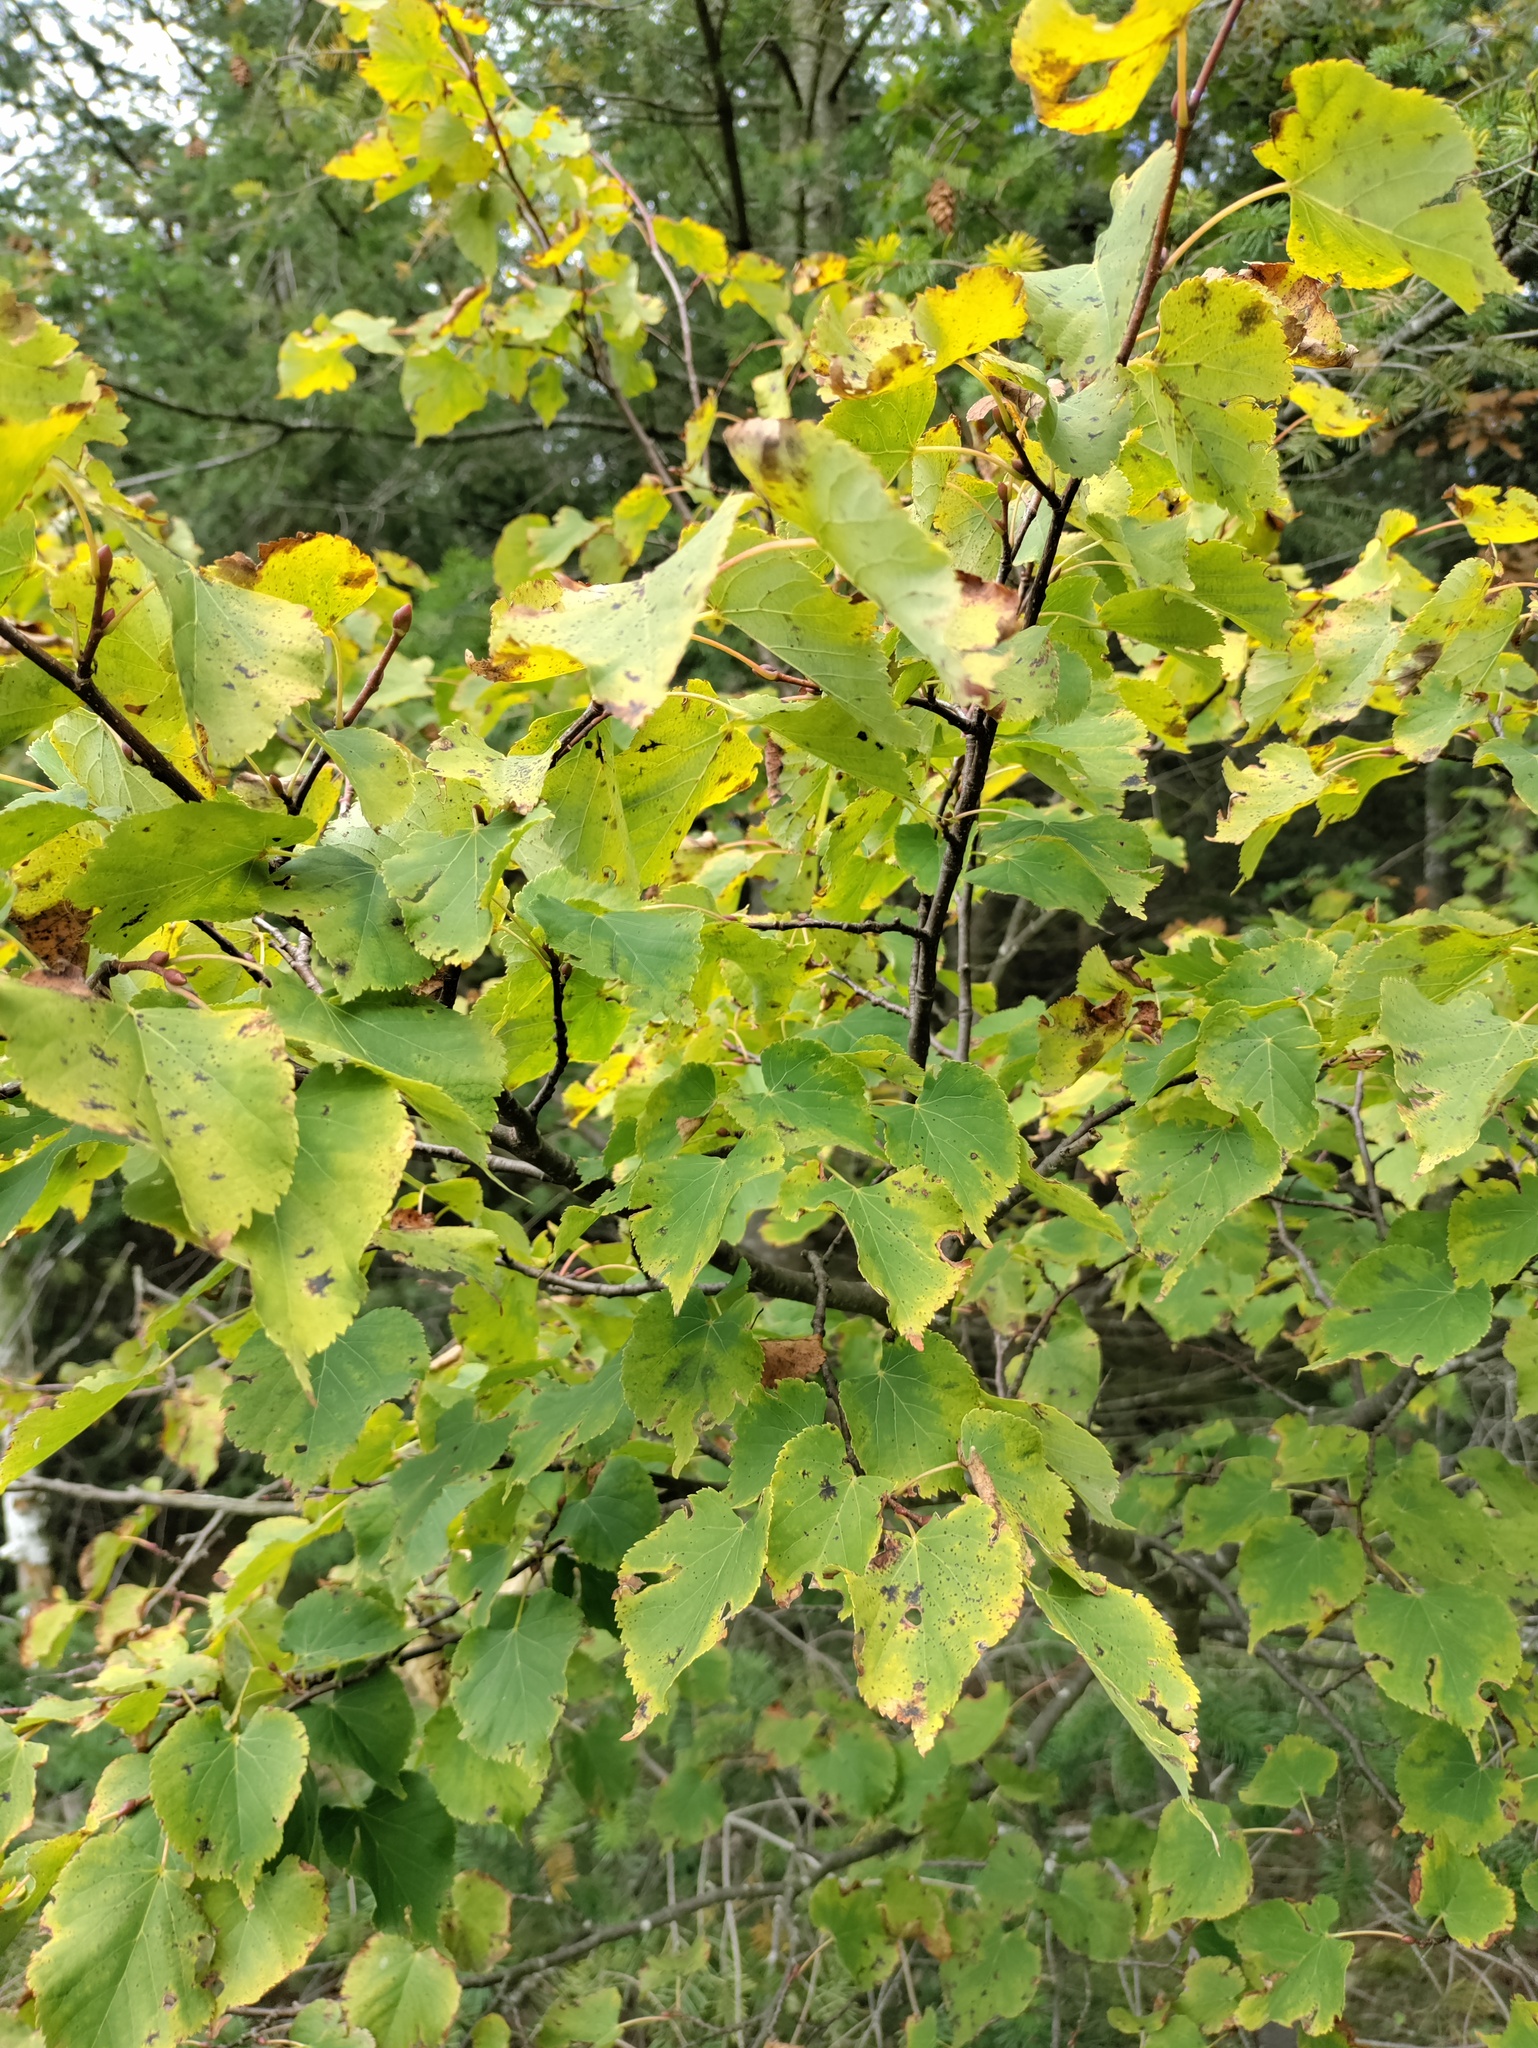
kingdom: Plantae
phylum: Tracheophyta
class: Magnoliopsida
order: Malvales
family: Malvaceae
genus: Tilia
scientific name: Tilia cordata
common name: Small-leaved lime
